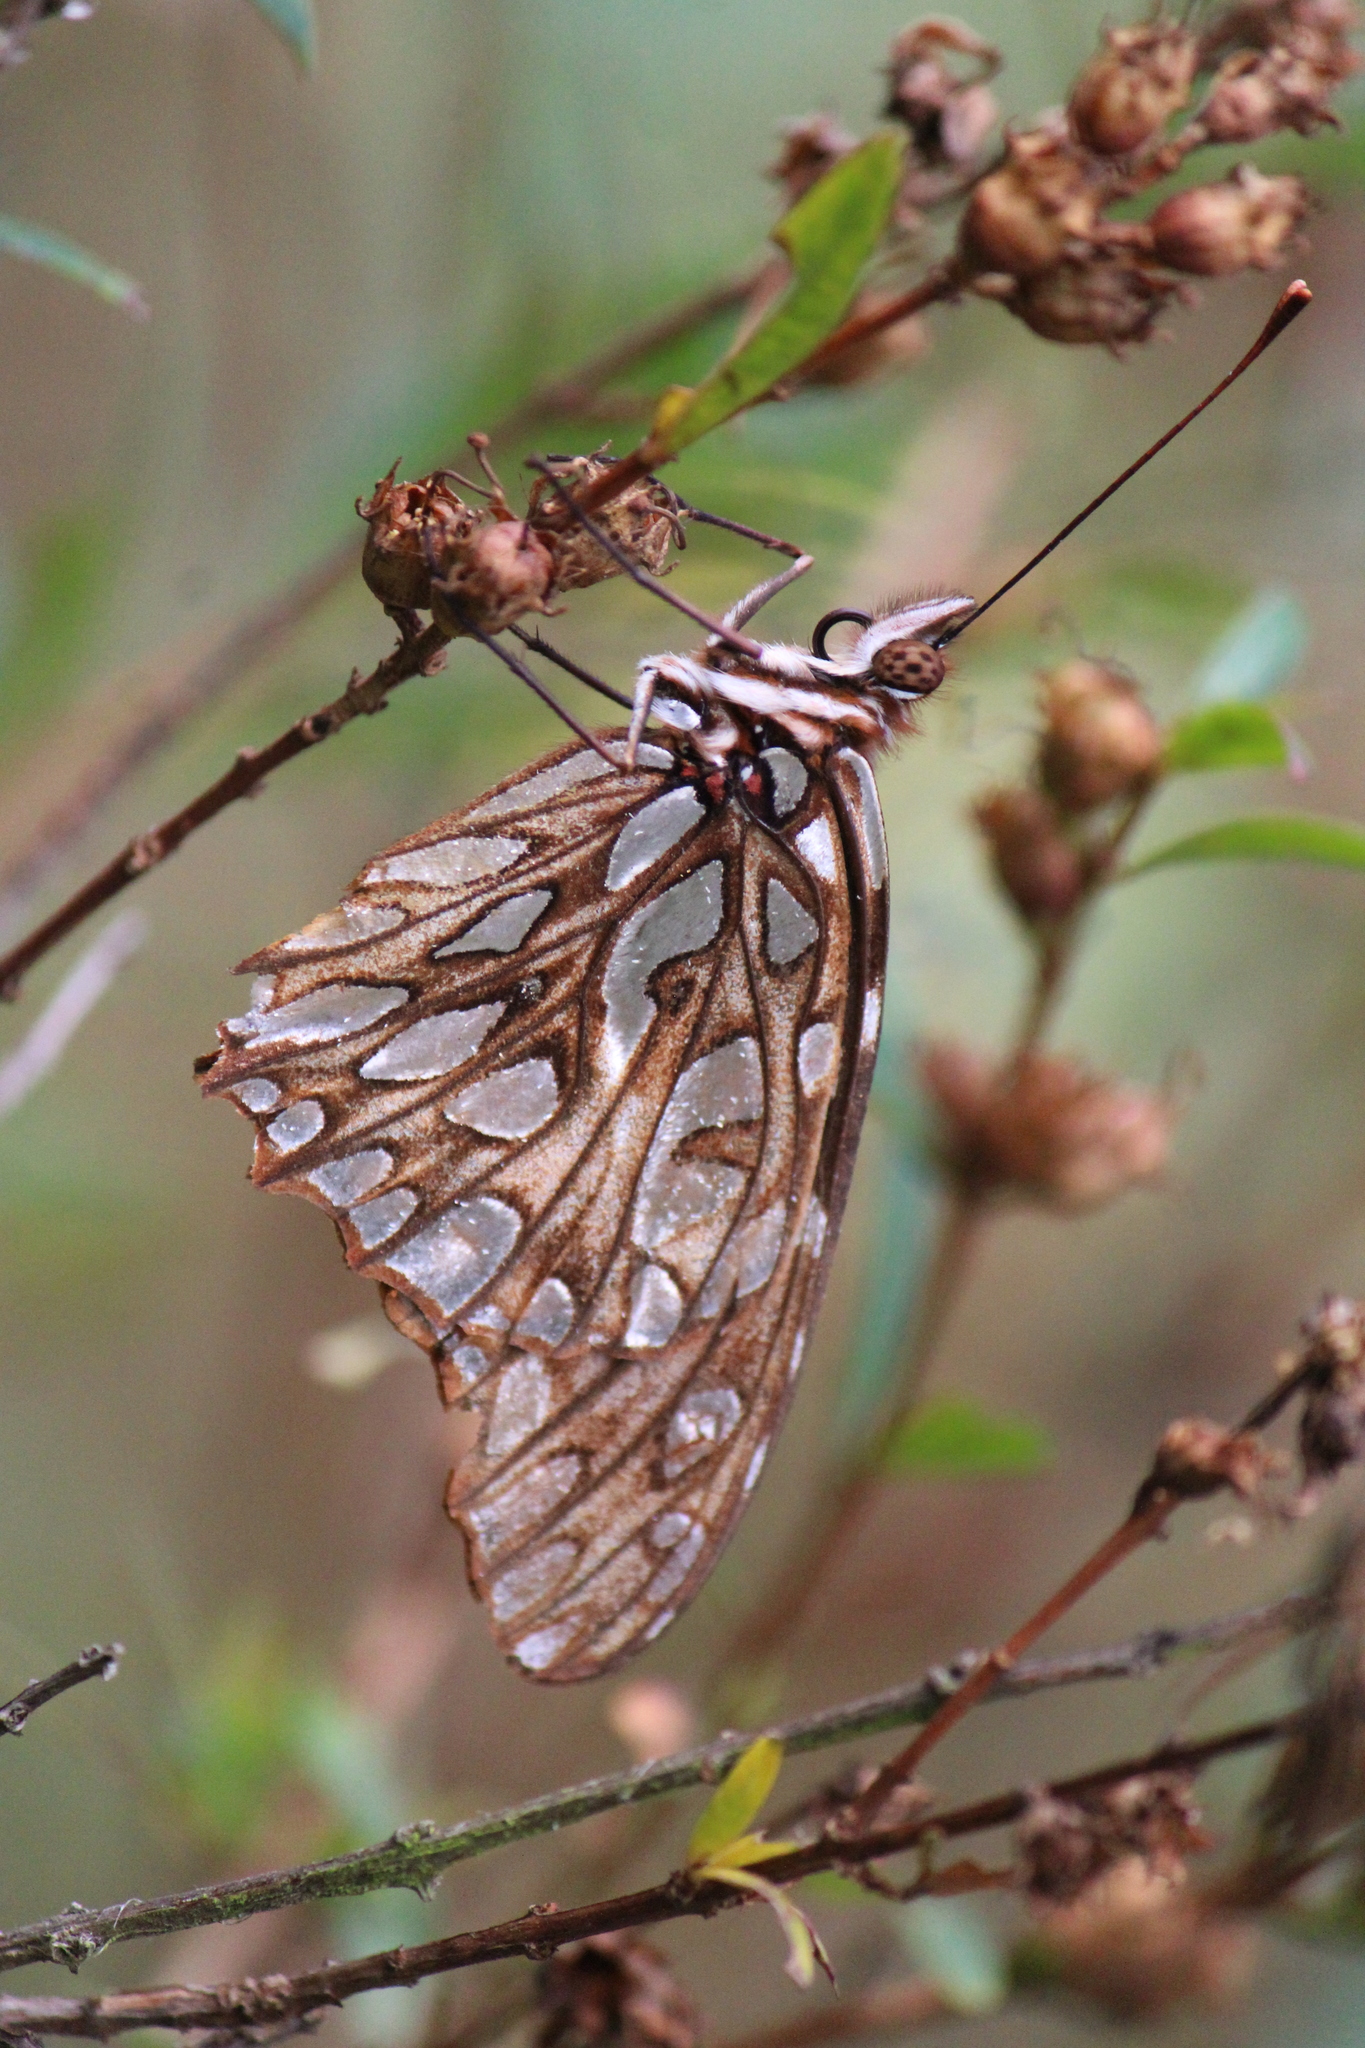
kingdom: Animalia
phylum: Arthropoda
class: Insecta
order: Lepidoptera
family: Nymphalidae
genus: Dione
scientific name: Dione moneta
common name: Mexican silverspot
